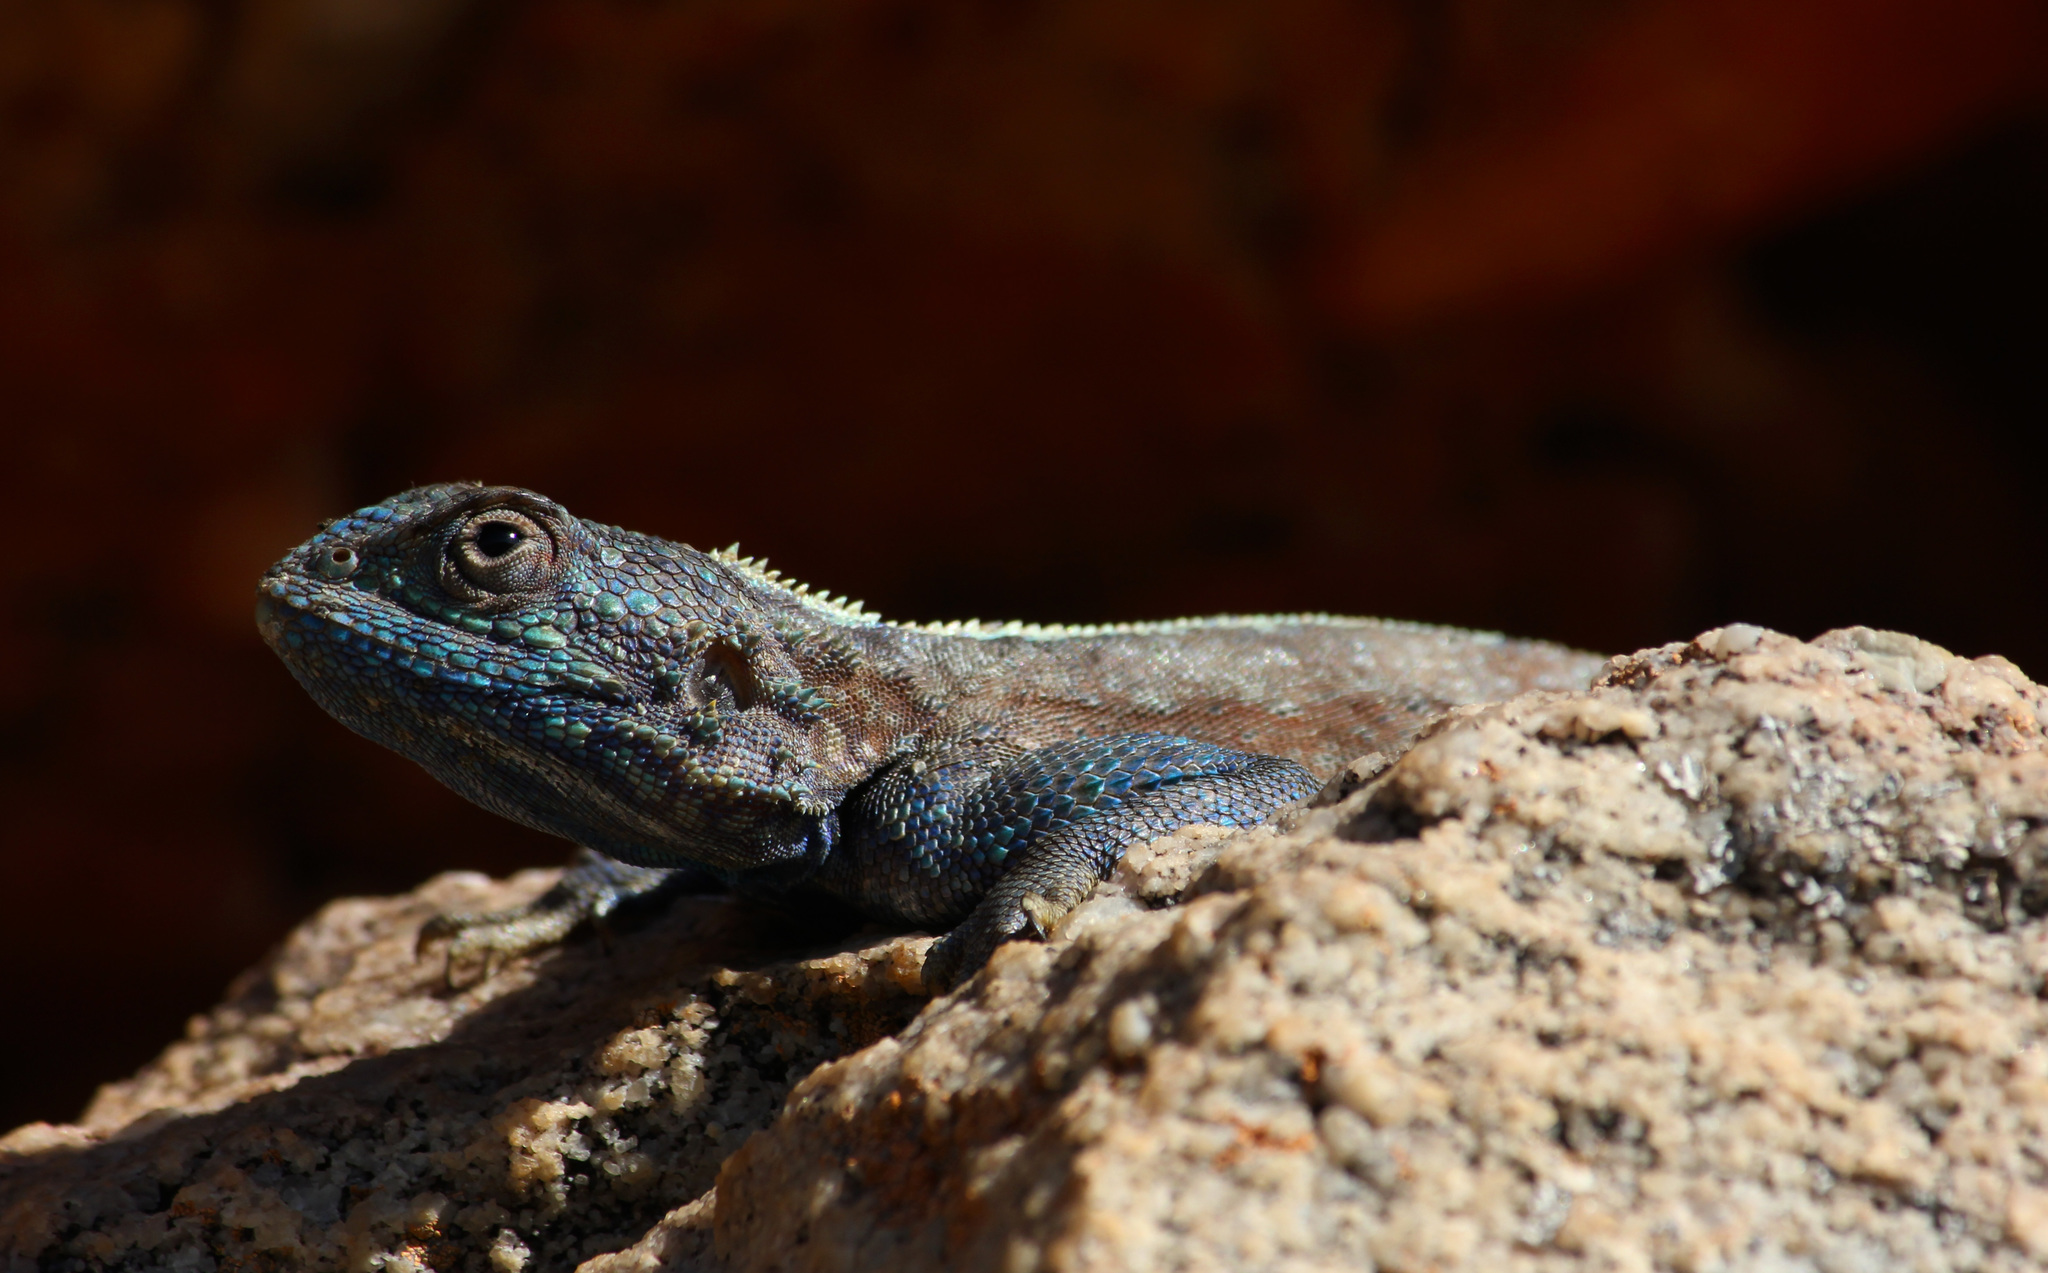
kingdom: Animalia
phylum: Chordata
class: Squamata
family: Agamidae
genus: Agama
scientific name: Agama atra
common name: Southern african rock agama
